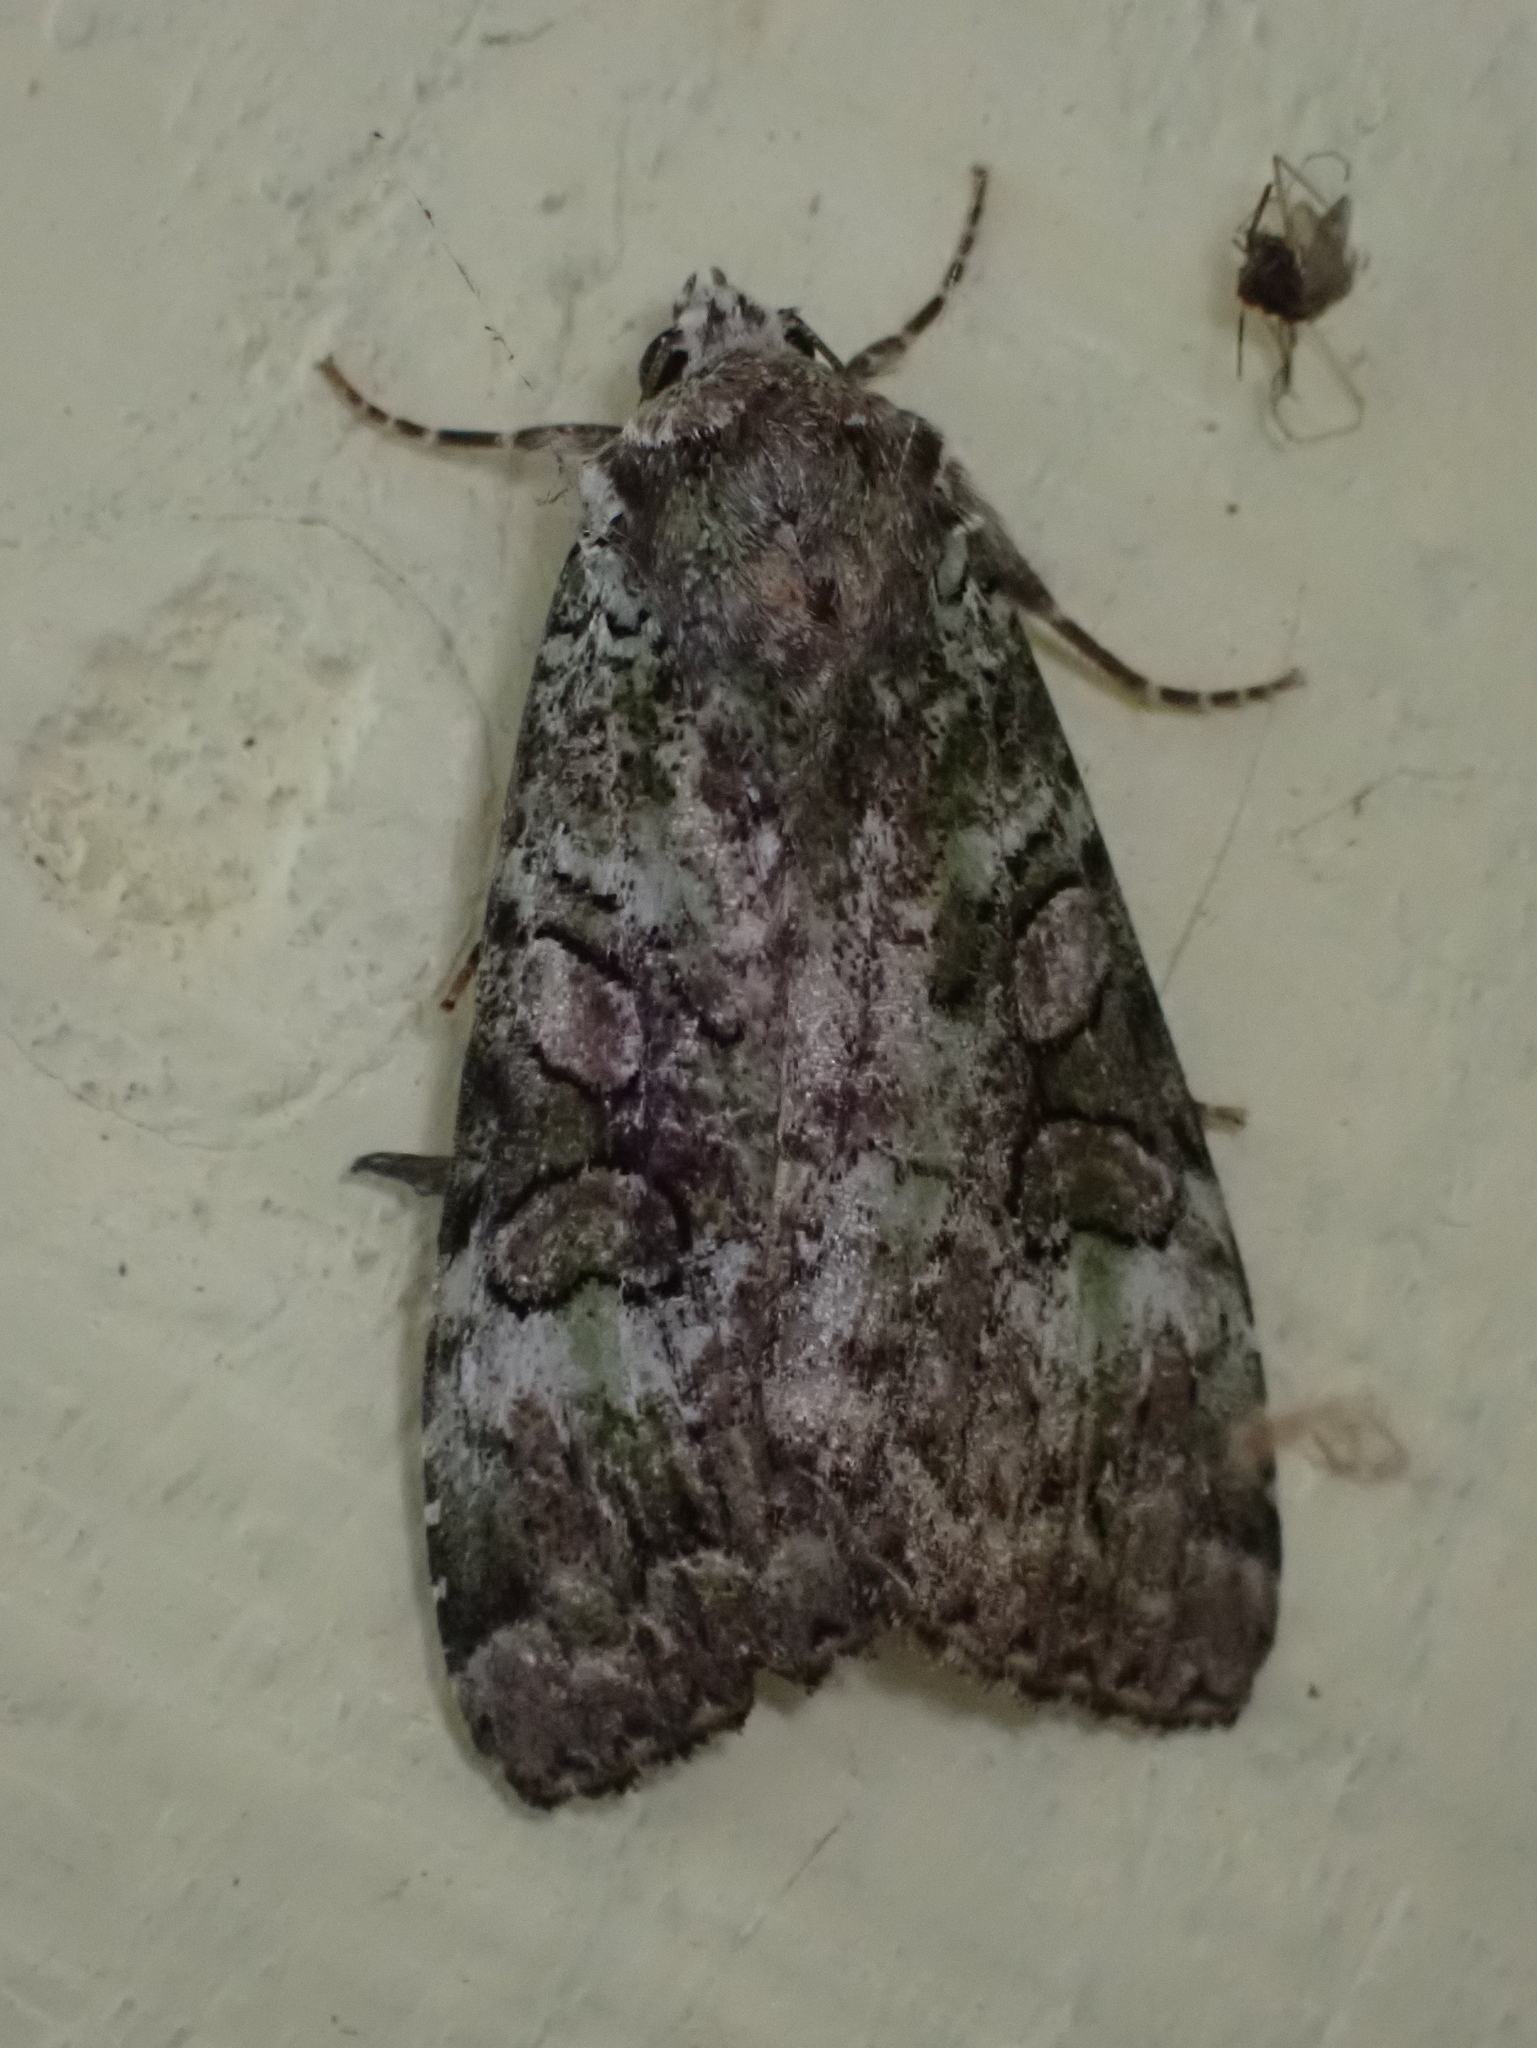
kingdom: Animalia
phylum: Arthropoda
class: Insecta
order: Lepidoptera
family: Noctuidae
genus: Anaplectoides
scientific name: Anaplectoides prasina
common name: Green arches
